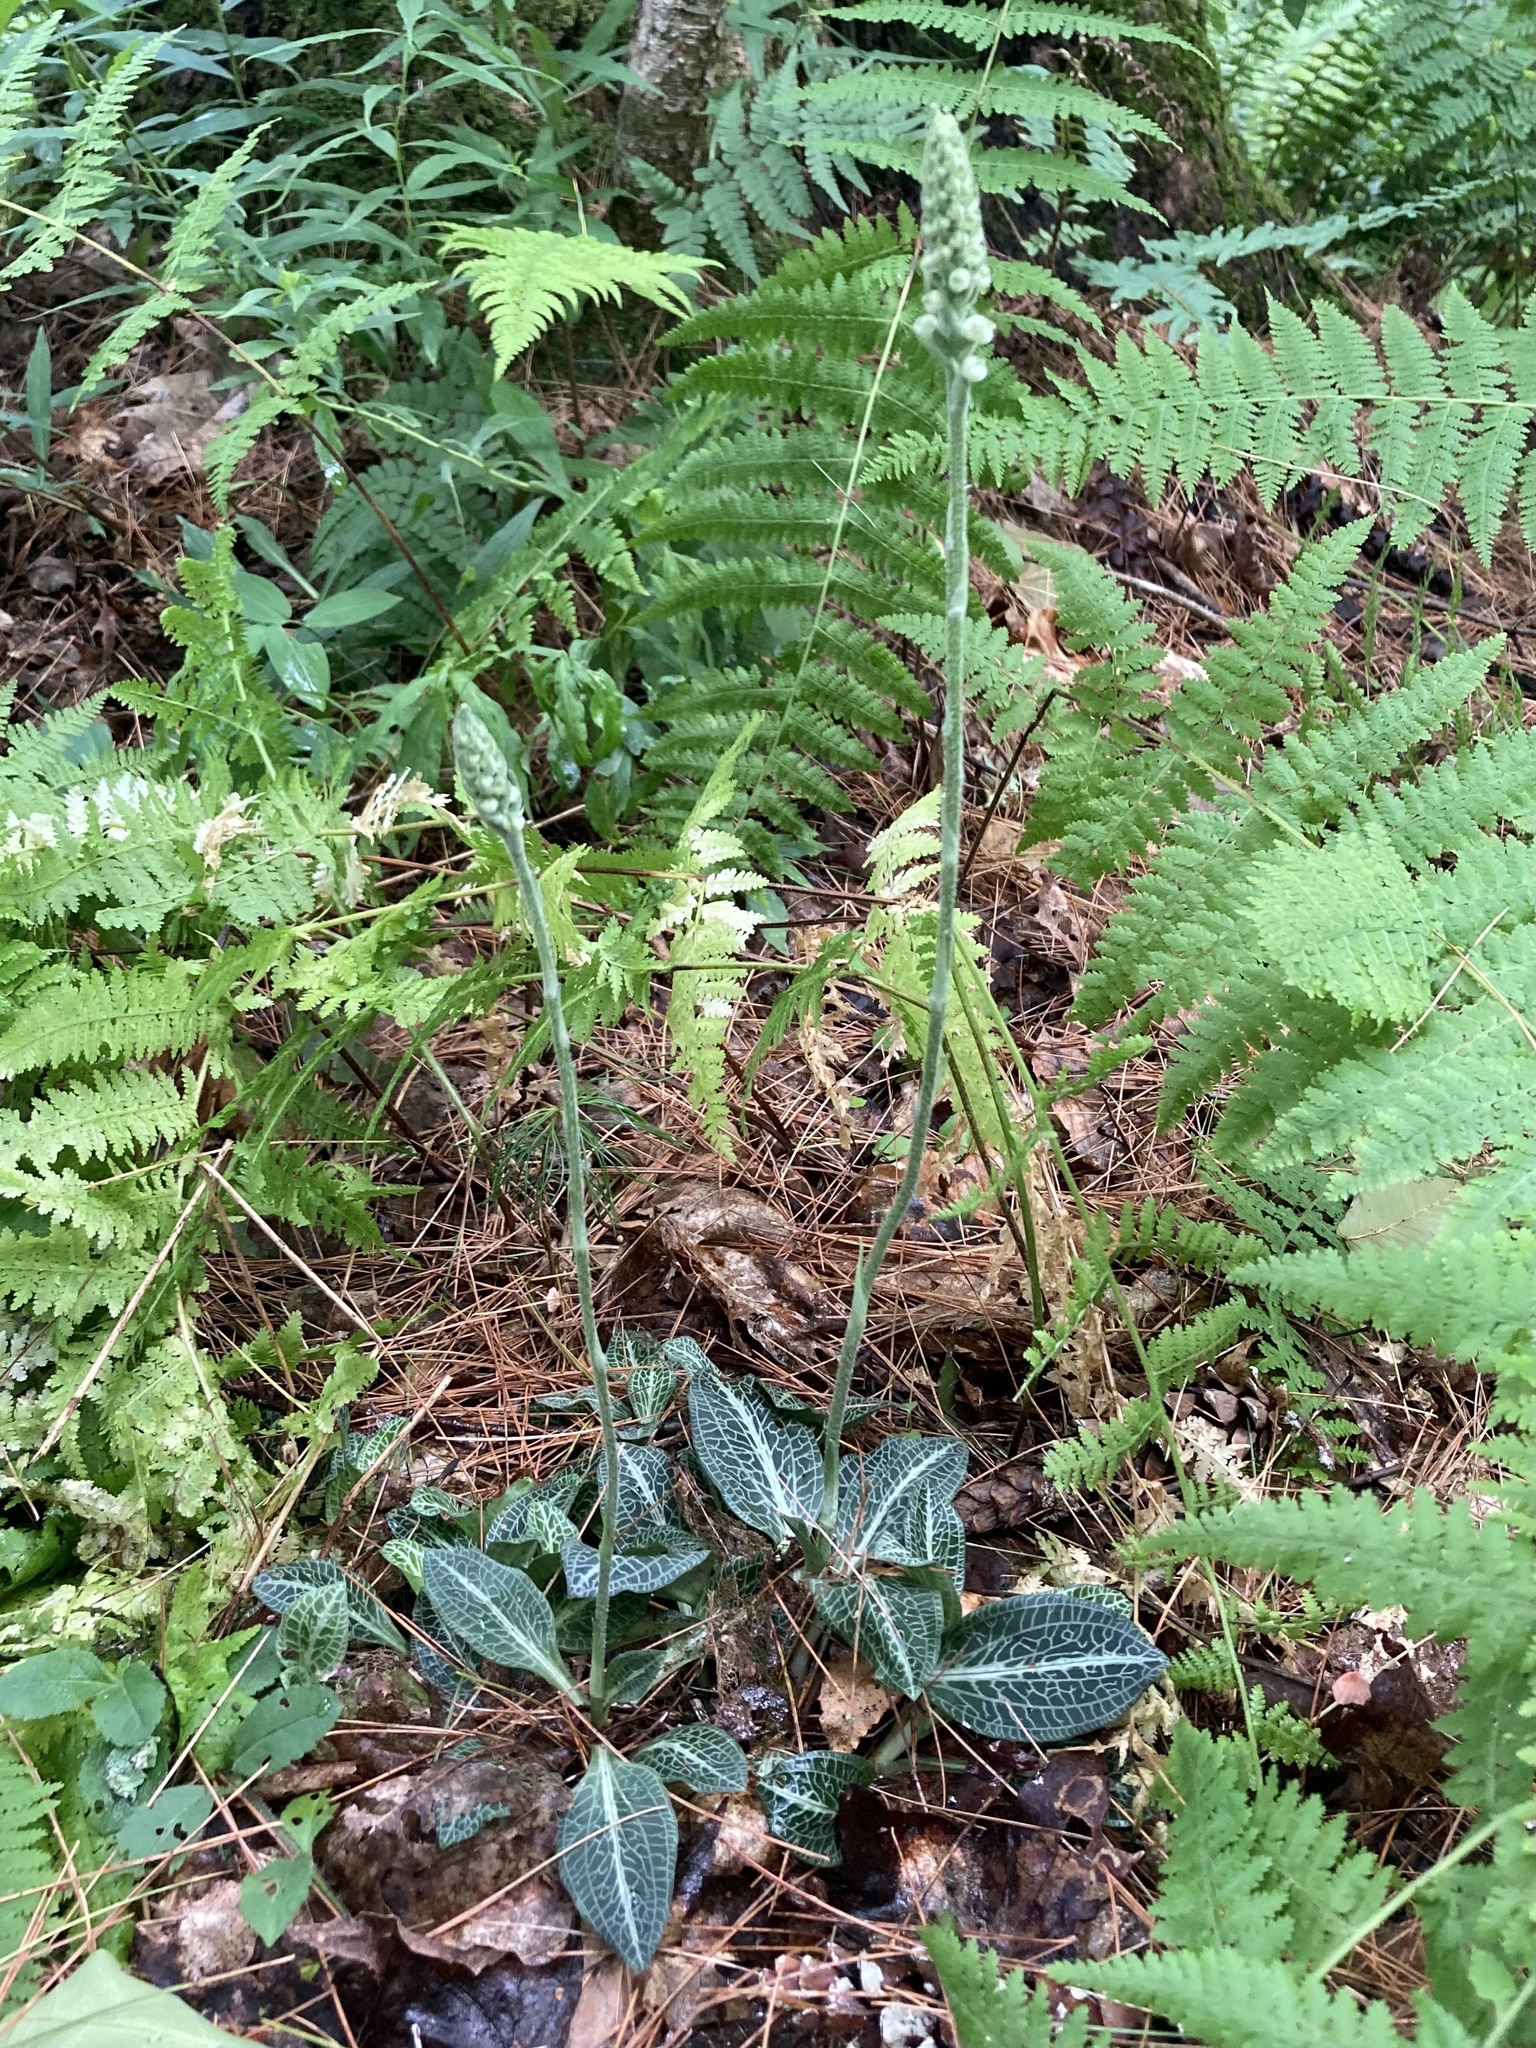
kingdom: Plantae
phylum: Tracheophyta
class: Liliopsida
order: Asparagales
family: Orchidaceae
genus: Goodyera
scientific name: Goodyera pubescens
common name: Downy rattlesnake-plantain
